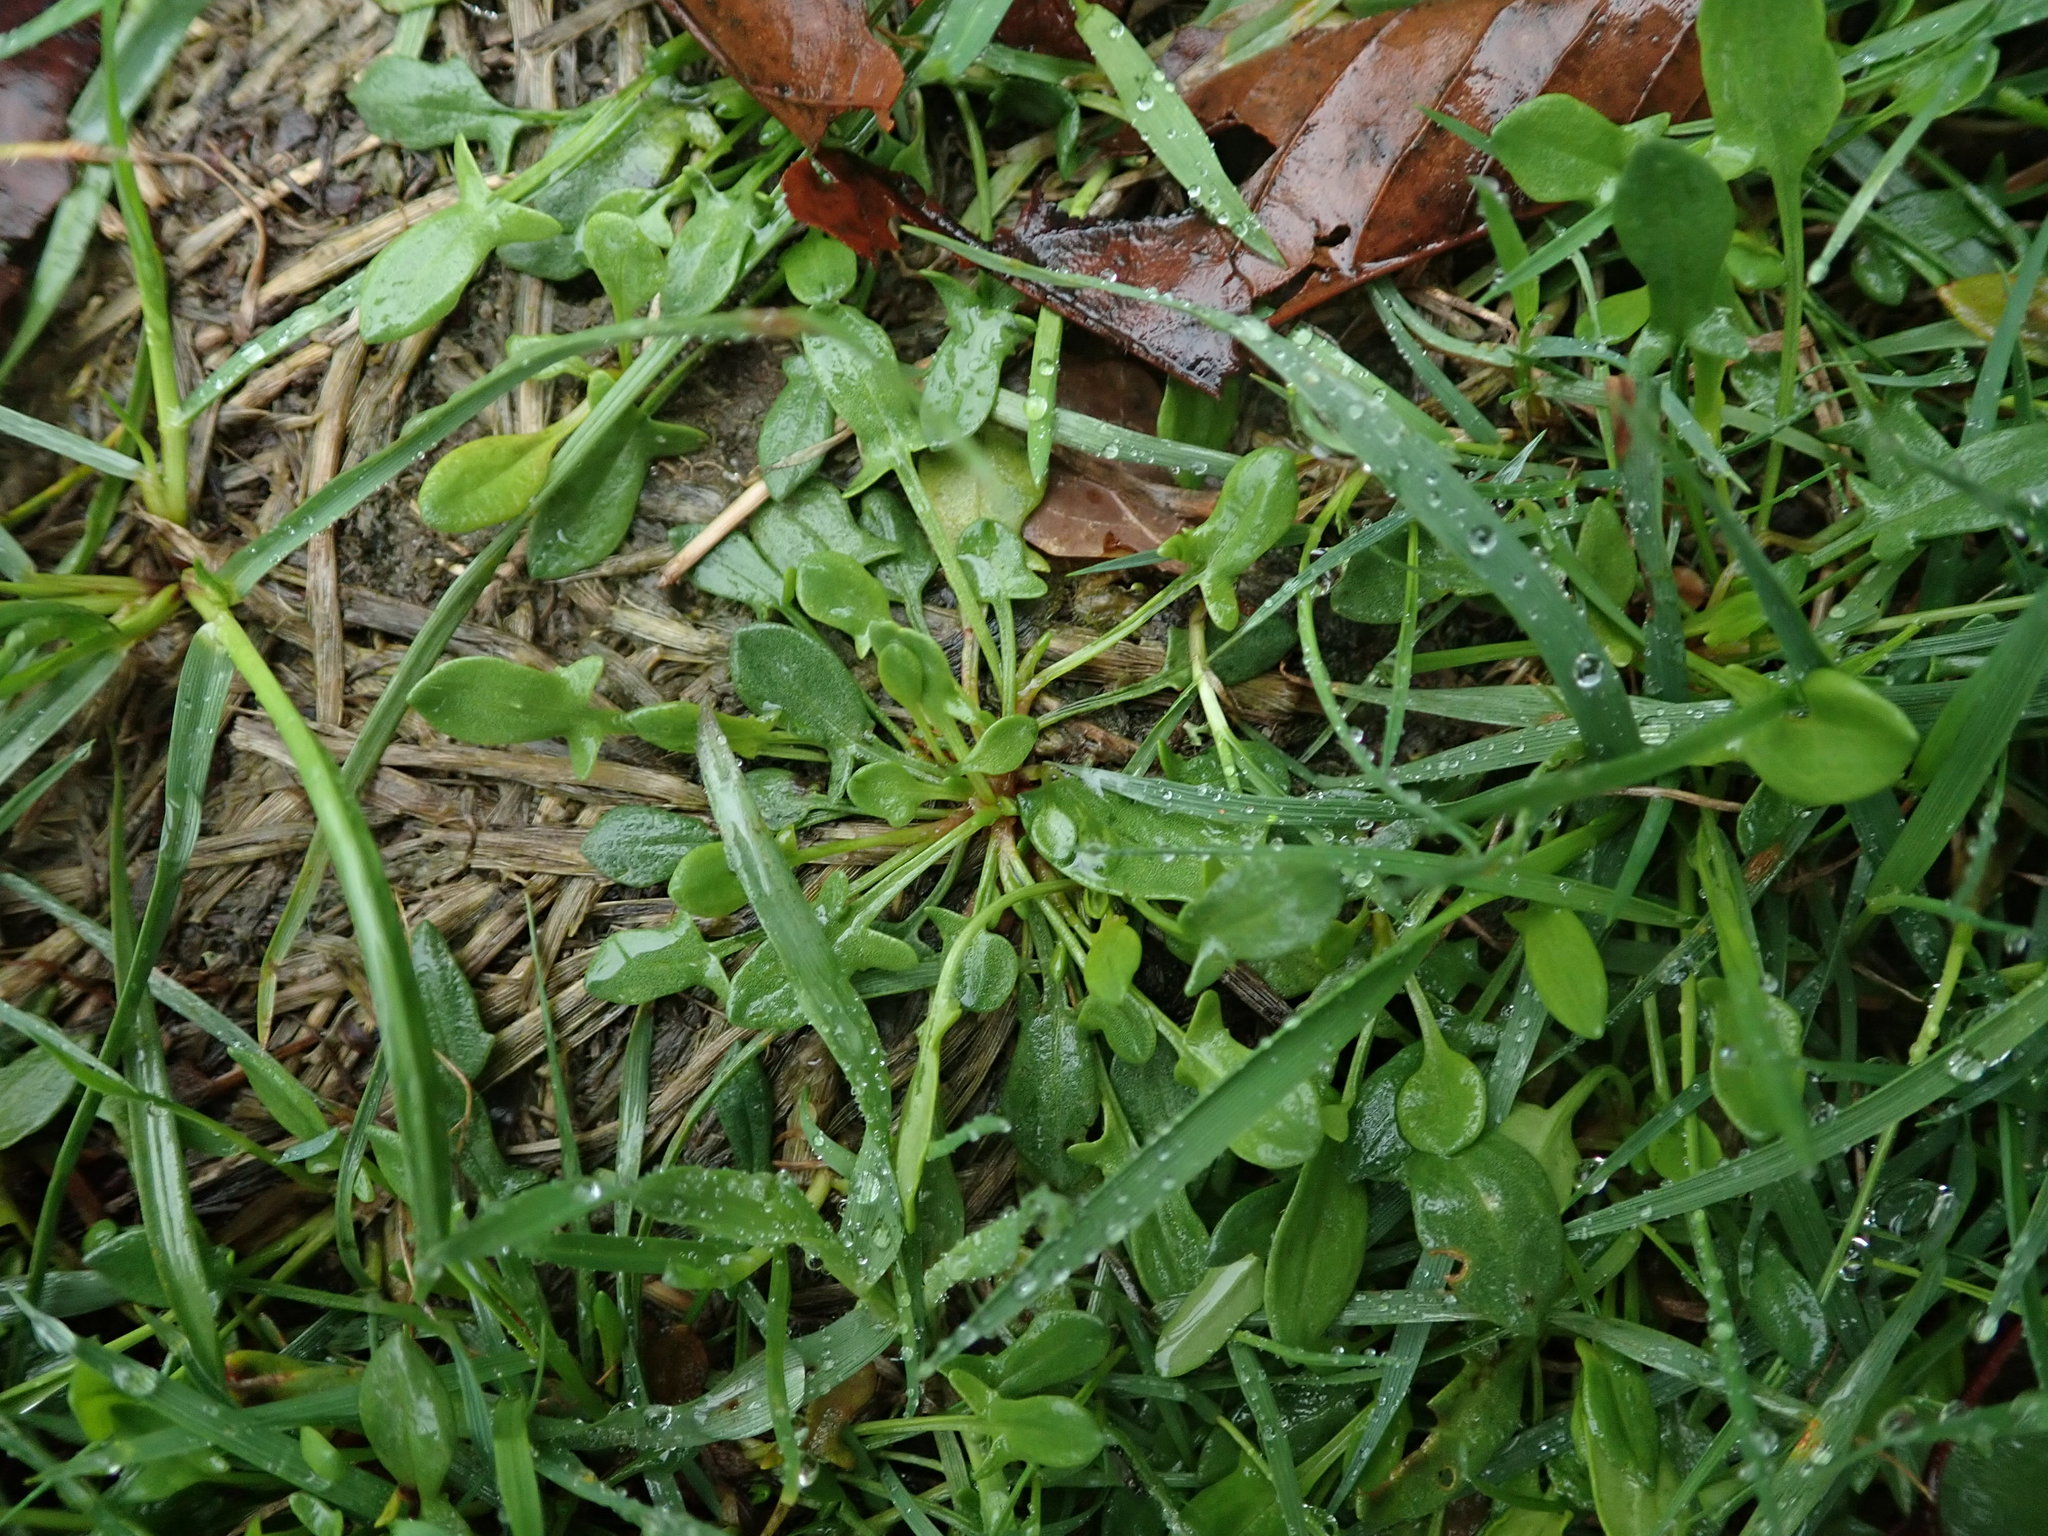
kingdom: Plantae
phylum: Tracheophyta
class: Magnoliopsida
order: Caryophyllales
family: Polygonaceae
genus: Rumex
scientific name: Rumex acetosella
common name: Common sheep sorrel
